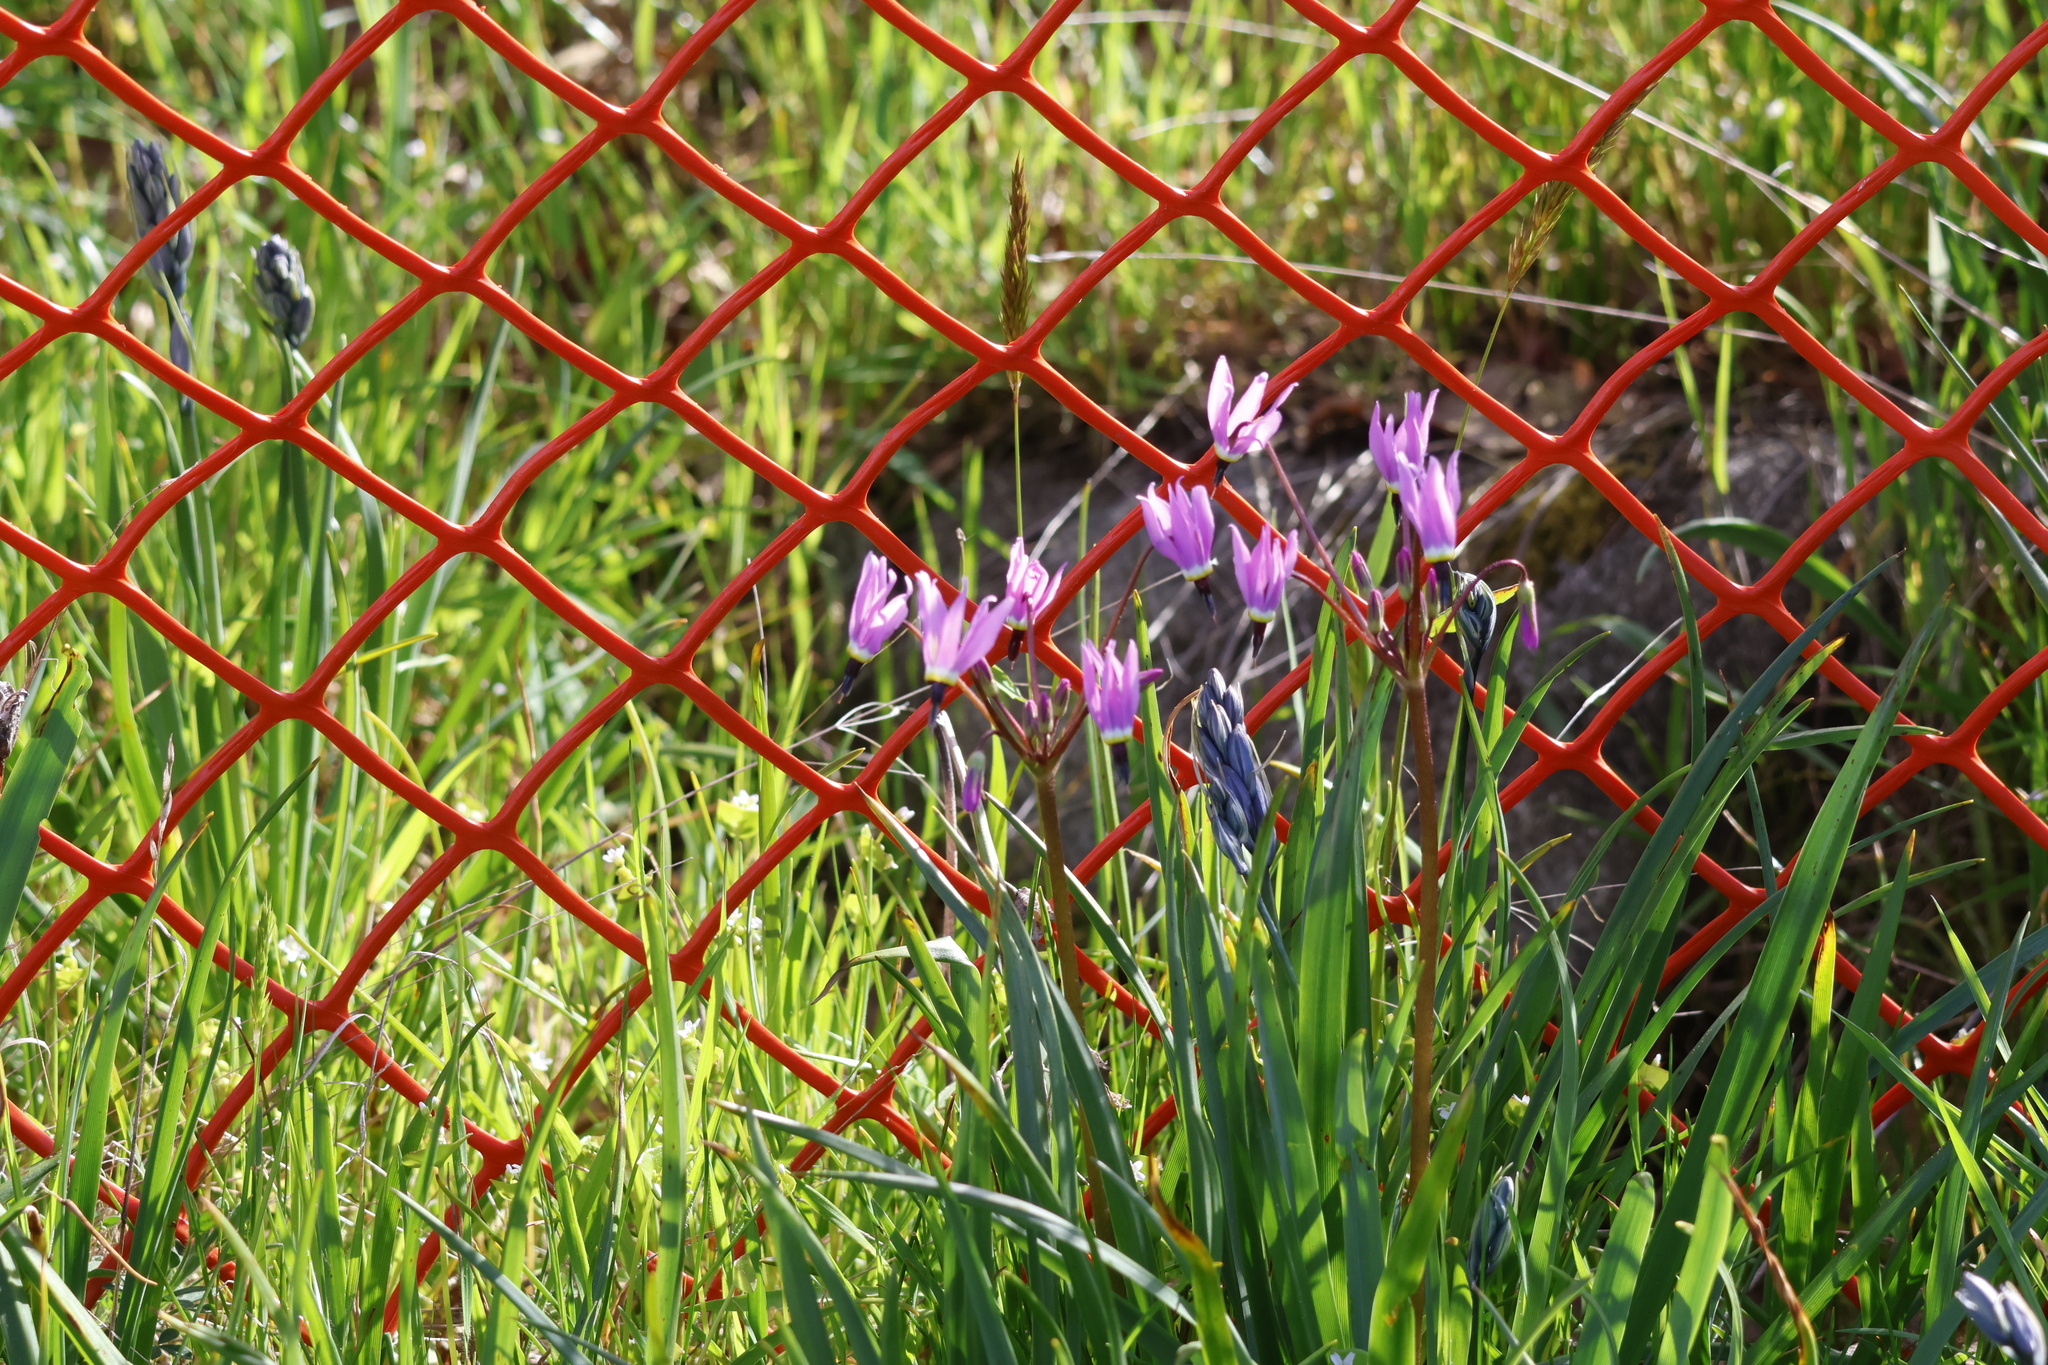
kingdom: Plantae
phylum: Tracheophyta
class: Magnoliopsida
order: Ericales
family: Primulaceae
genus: Dodecatheon
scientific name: Dodecatheon hendersonii
